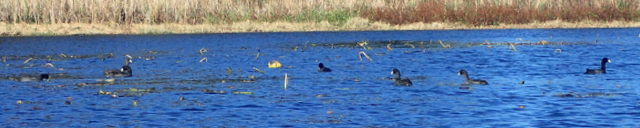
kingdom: Animalia
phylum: Chordata
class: Aves
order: Gruiformes
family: Rallidae
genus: Fulica
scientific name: Fulica americana
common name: American coot
